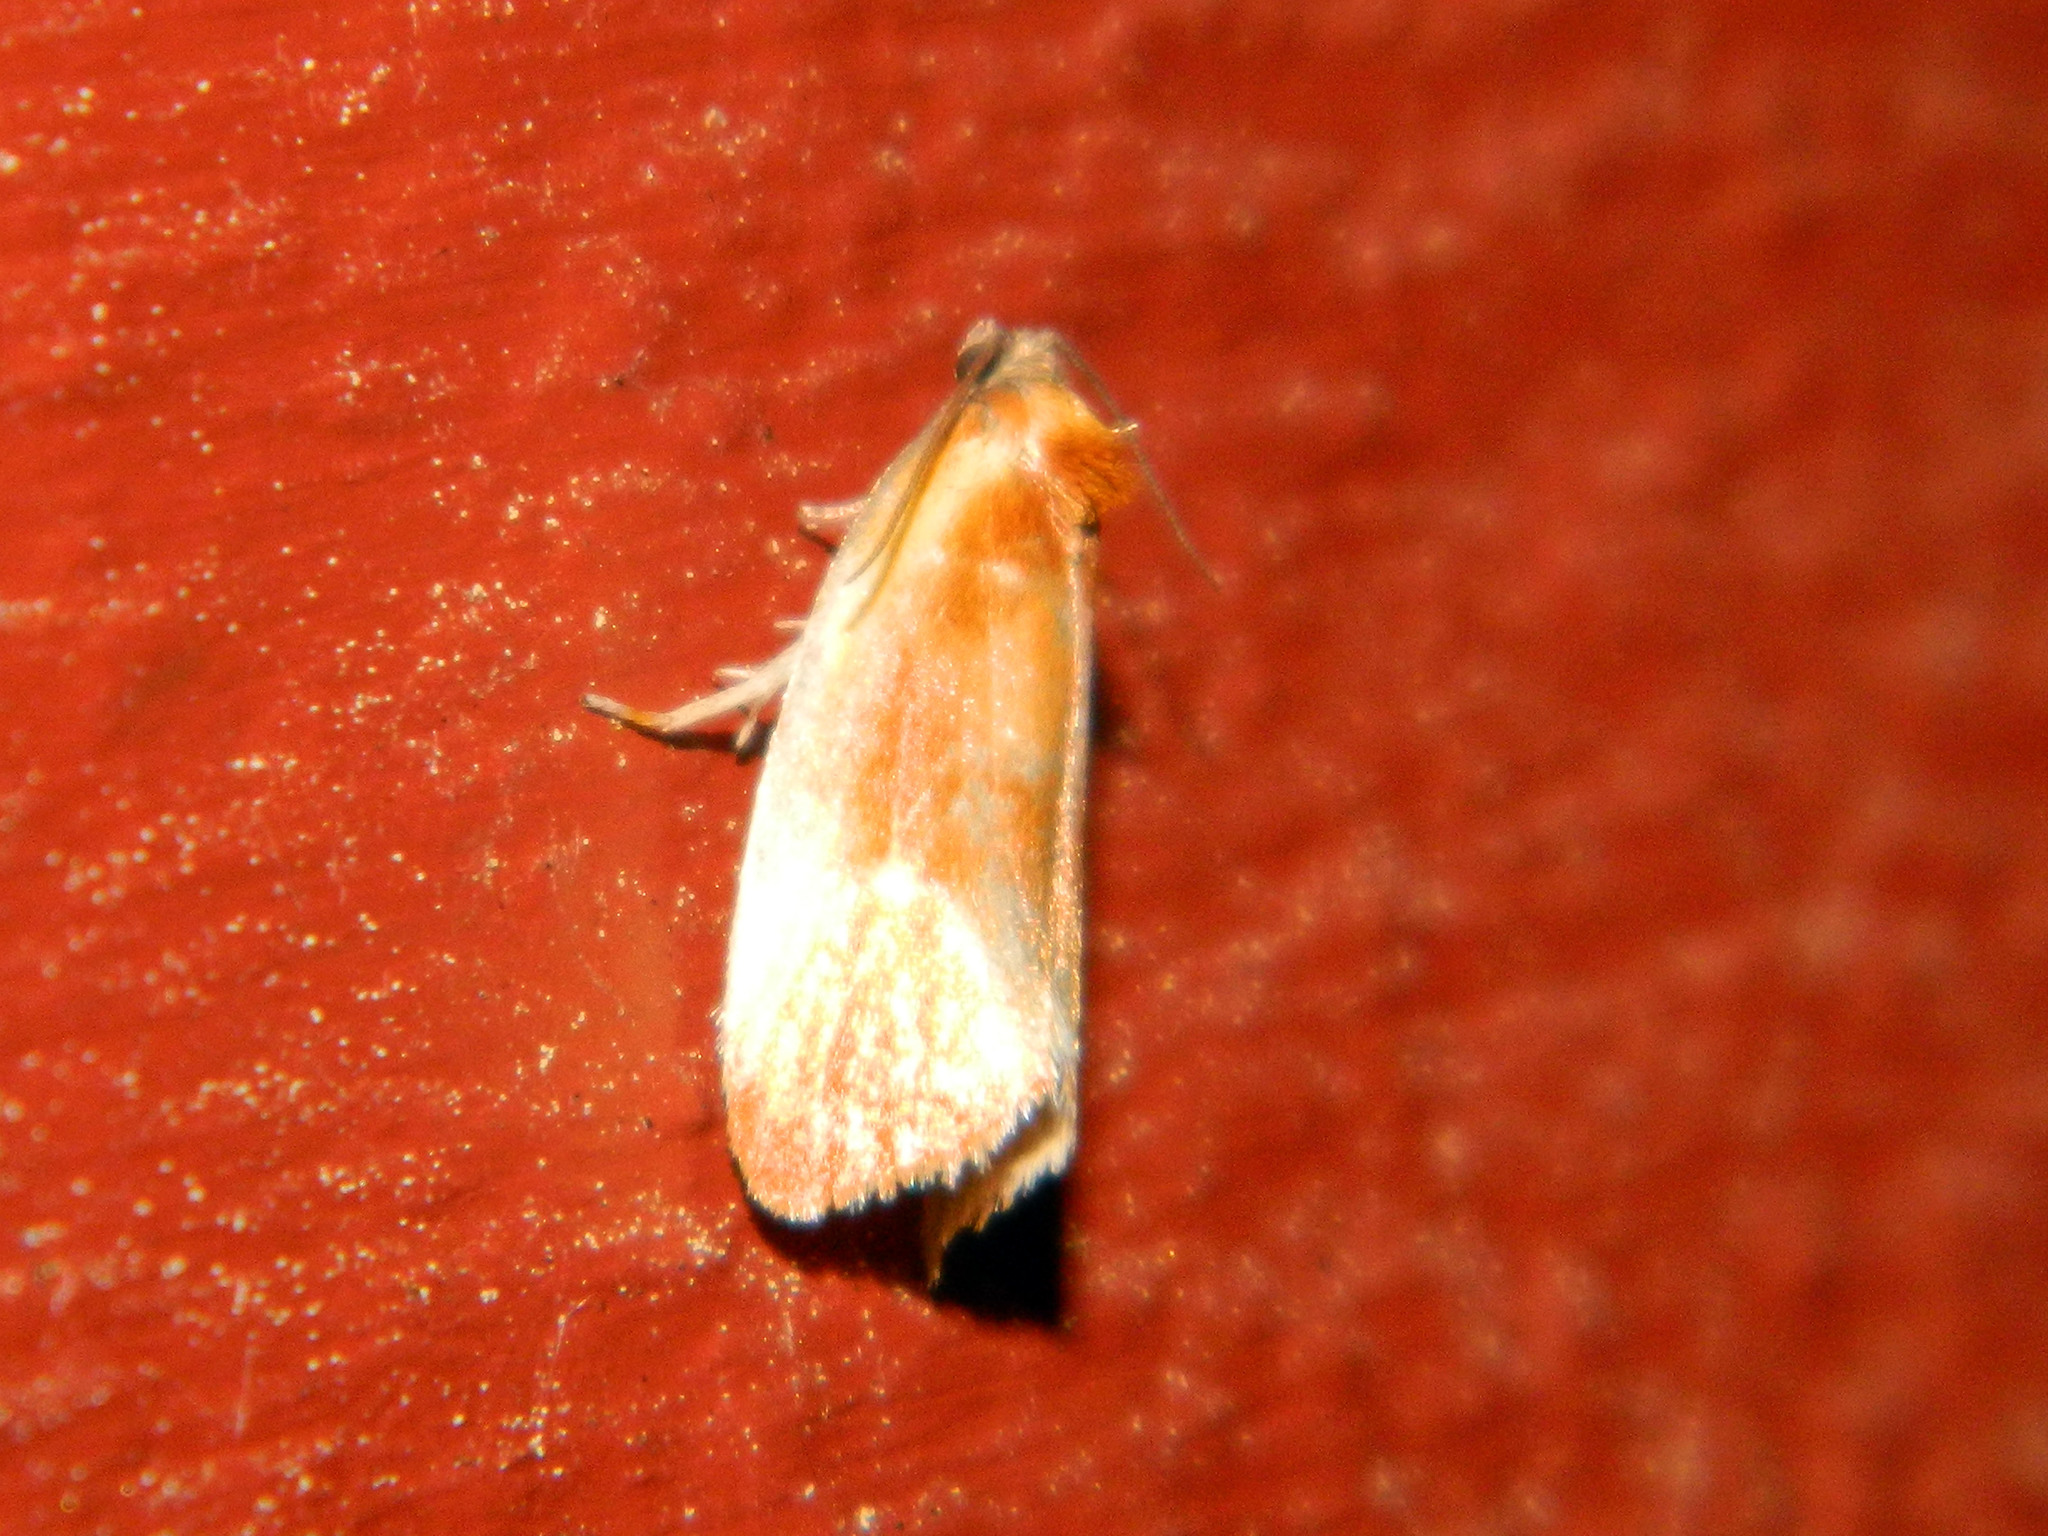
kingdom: Animalia
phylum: Arthropoda
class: Insecta
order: Lepidoptera
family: Tortricidae
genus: Eulia
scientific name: Eulia ministrana
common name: Brassy twist
